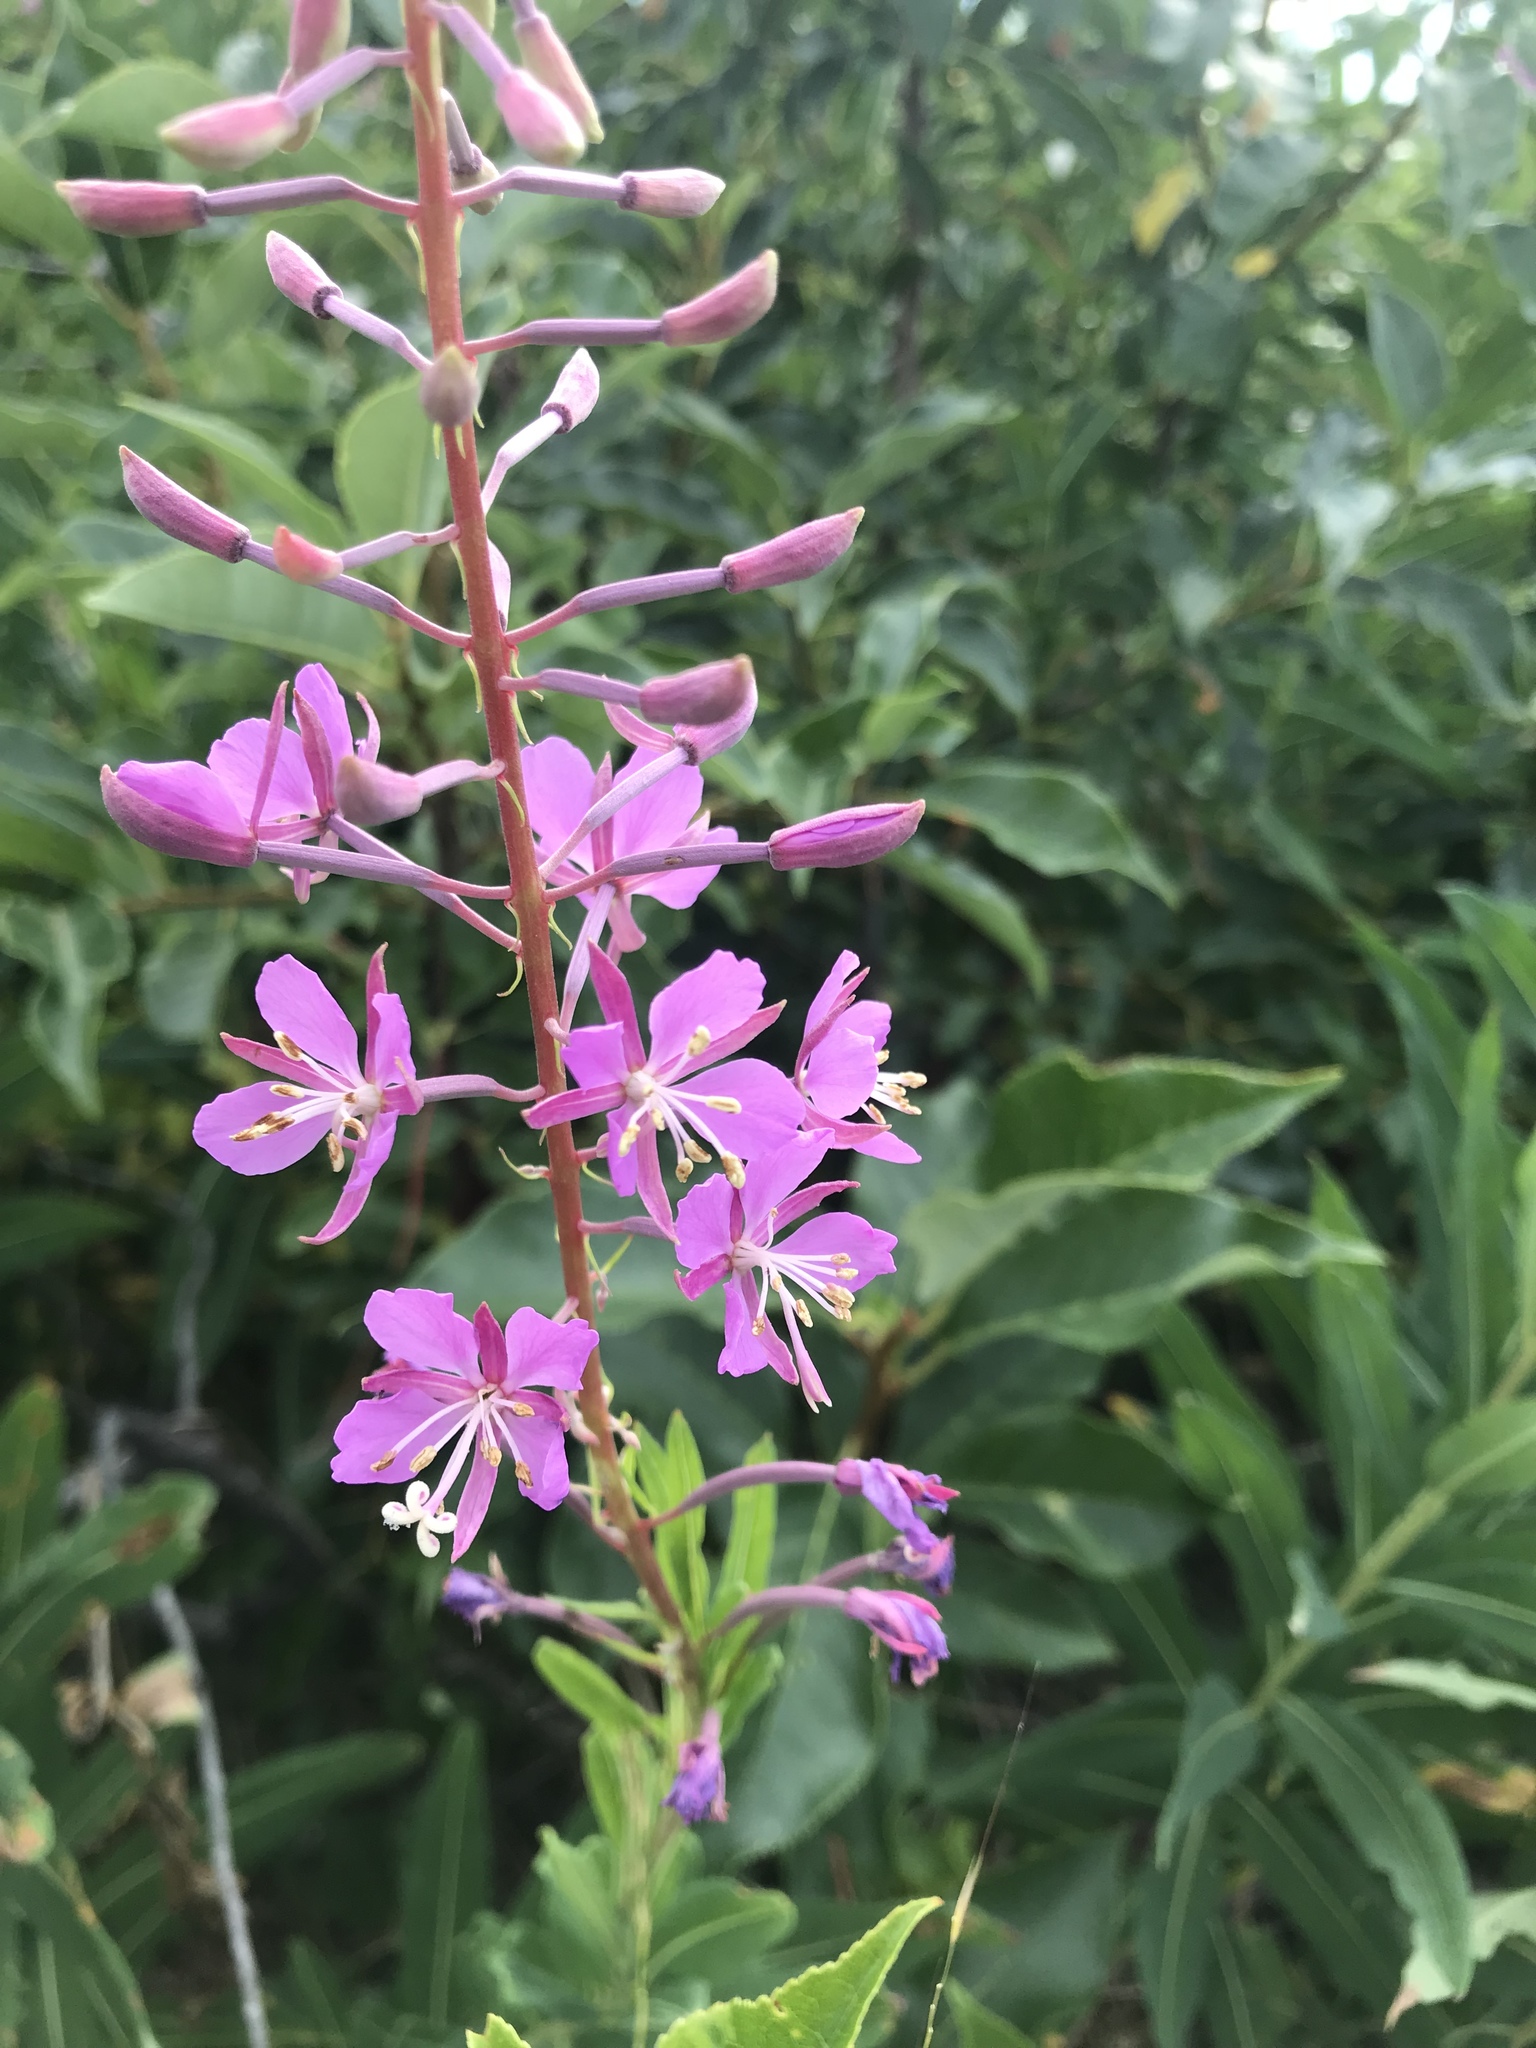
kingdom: Plantae
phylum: Tracheophyta
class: Magnoliopsida
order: Myrtales
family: Onagraceae
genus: Chamaenerion
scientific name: Chamaenerion angustifolium
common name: Fireweed
